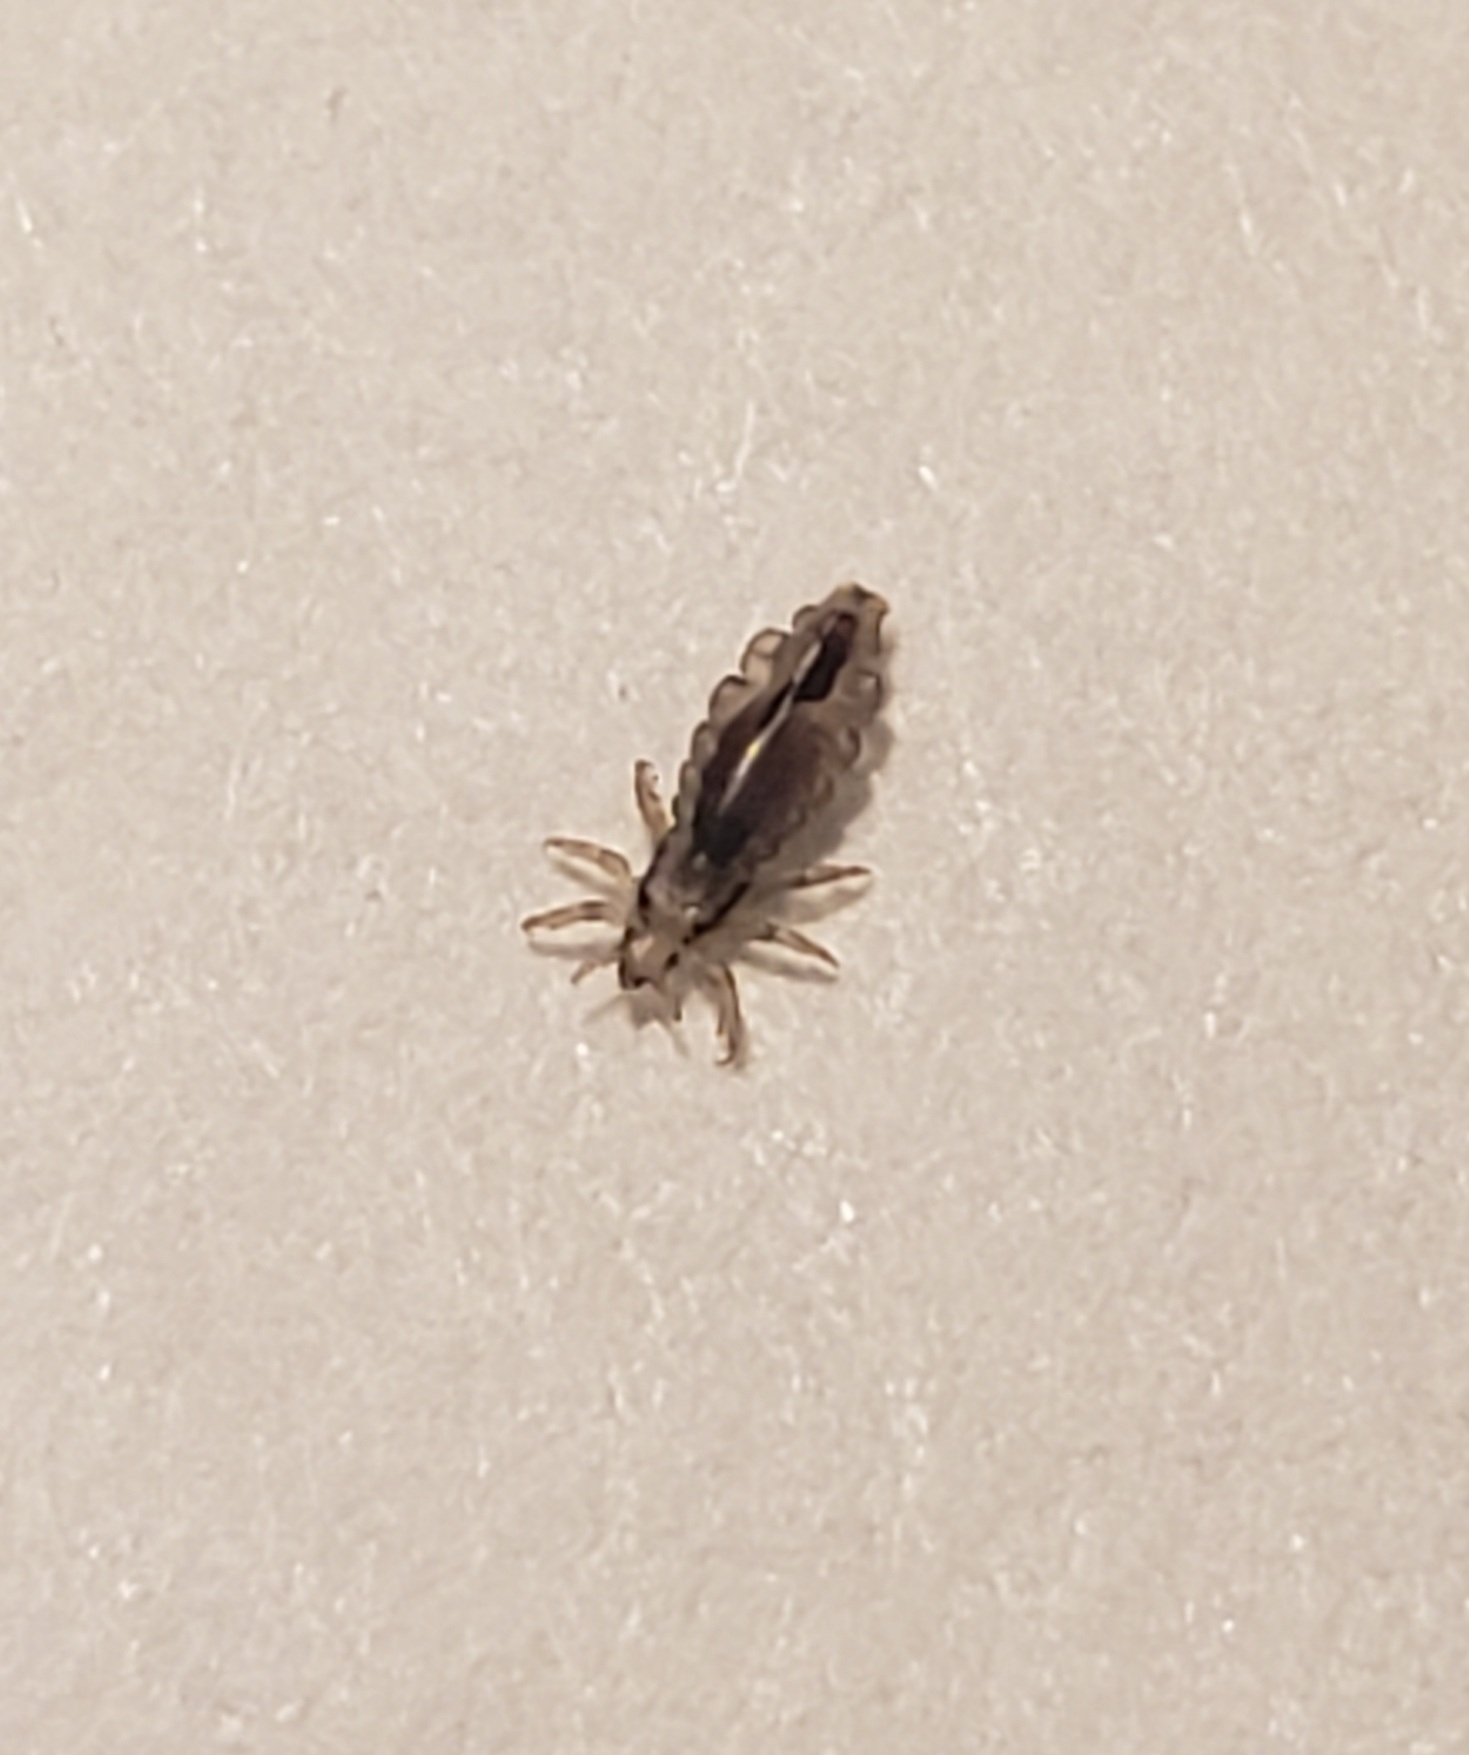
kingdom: Animalia
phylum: Arthropoda
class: Insecta
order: Psocodea
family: Pediculidae
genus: Pediculus
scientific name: Pediculus humanus
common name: Body louse
